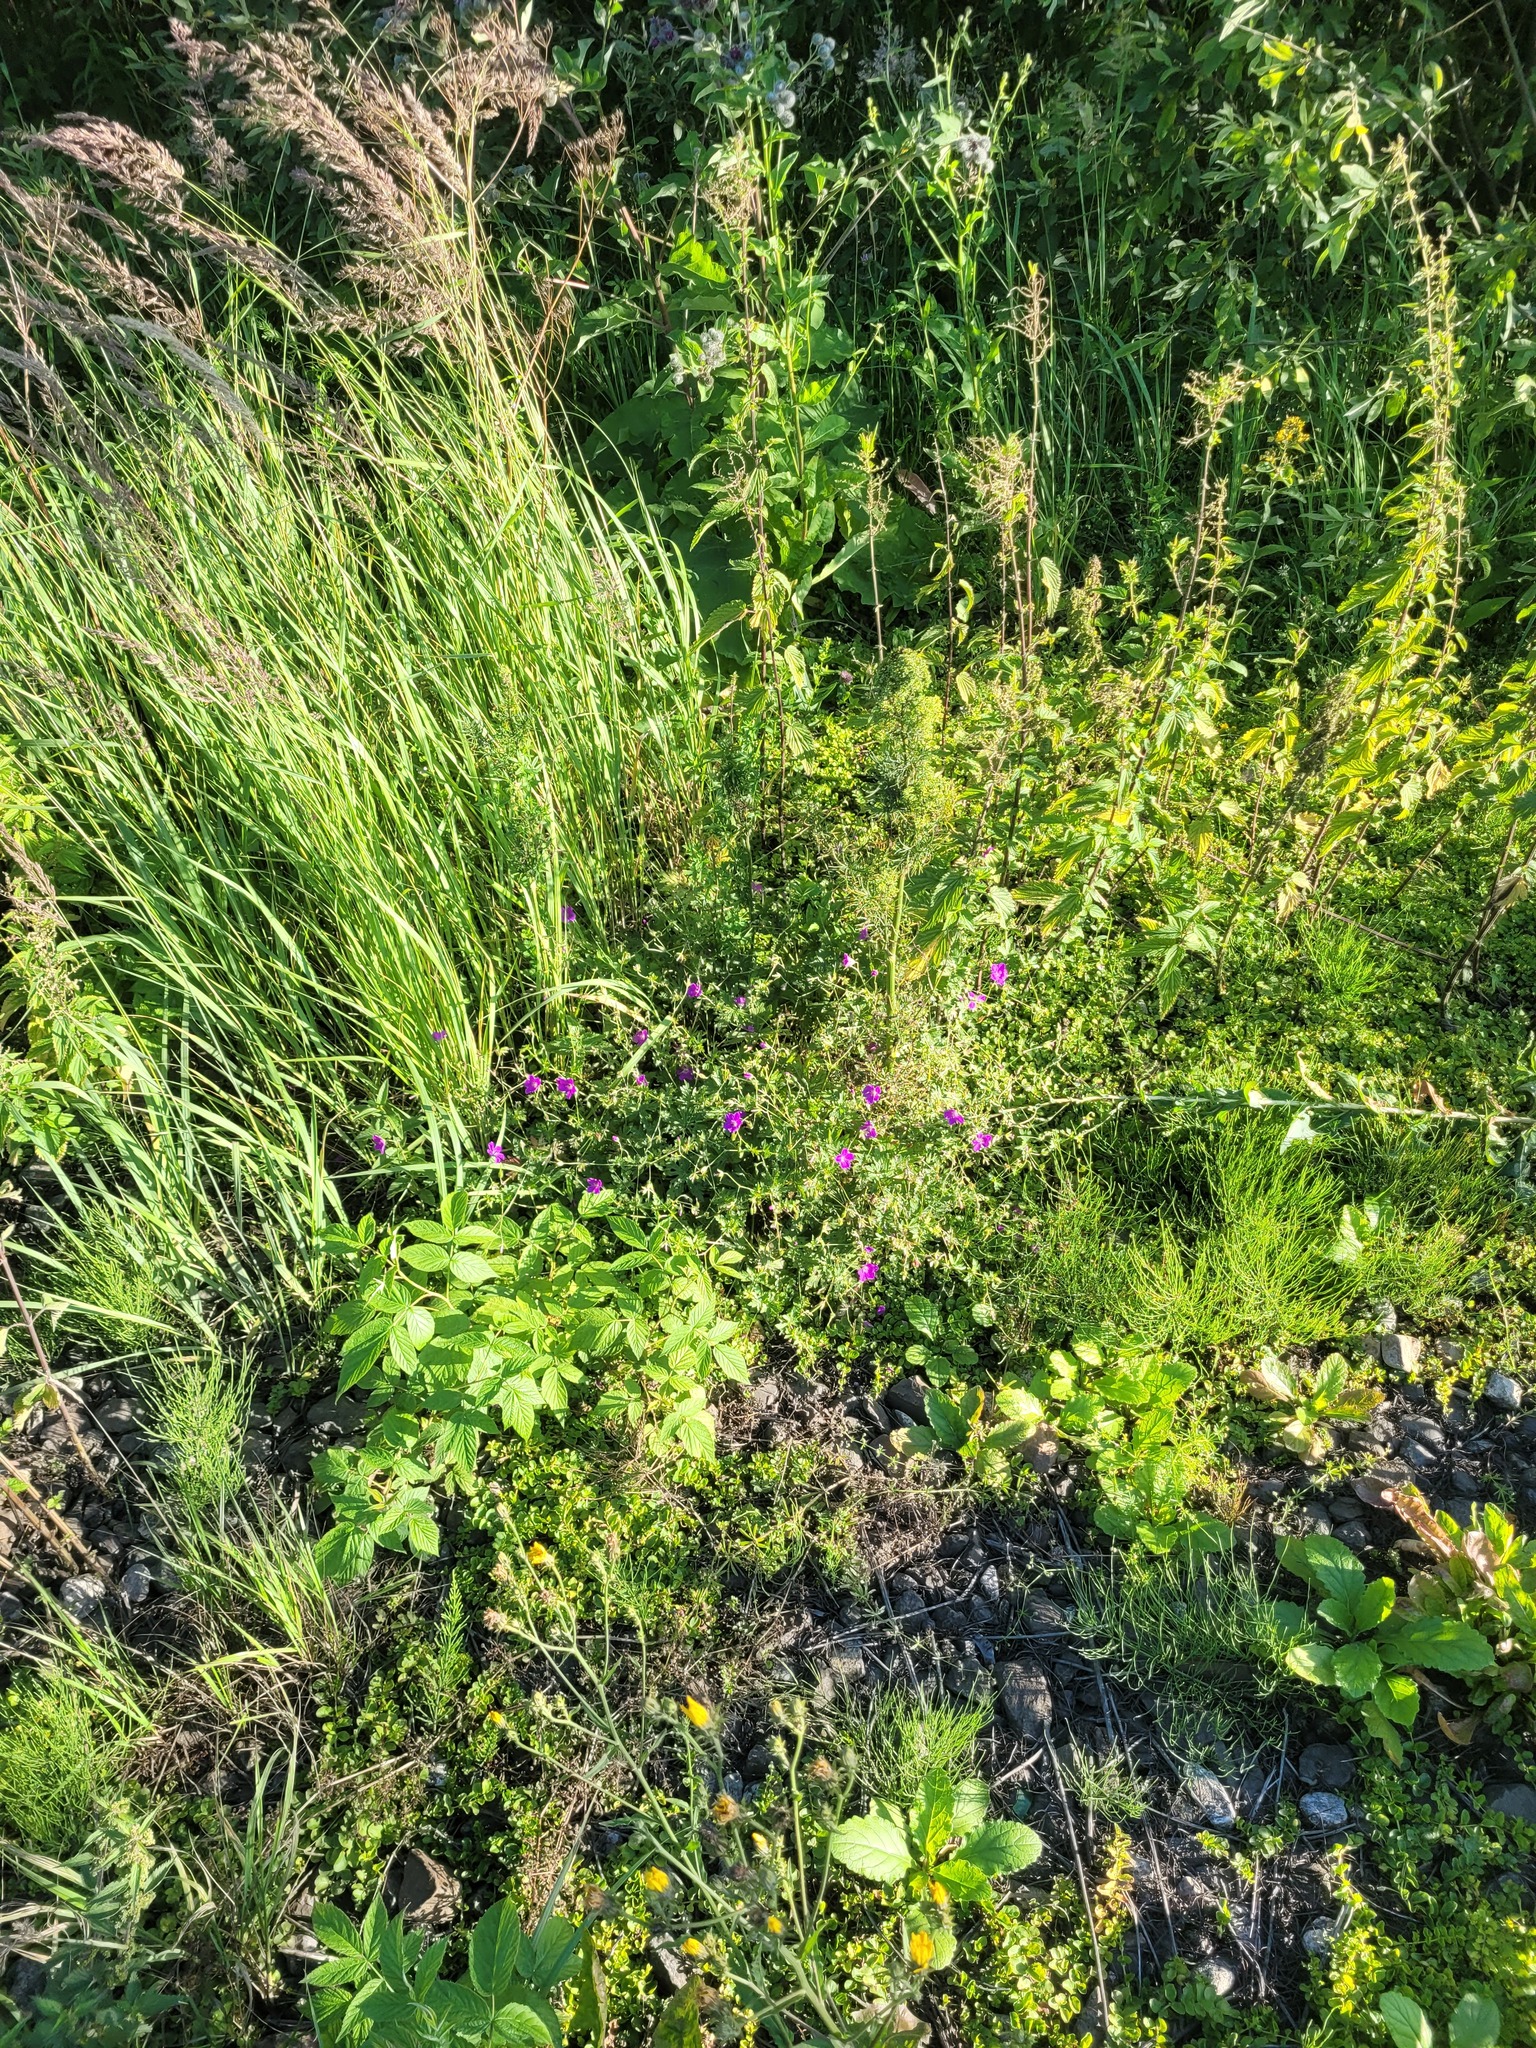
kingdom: Plantae
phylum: Tracheophyta
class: Magnoliopsida
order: Geraniales
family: Geraniaceae
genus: Geranium
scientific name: Geranium palustre
